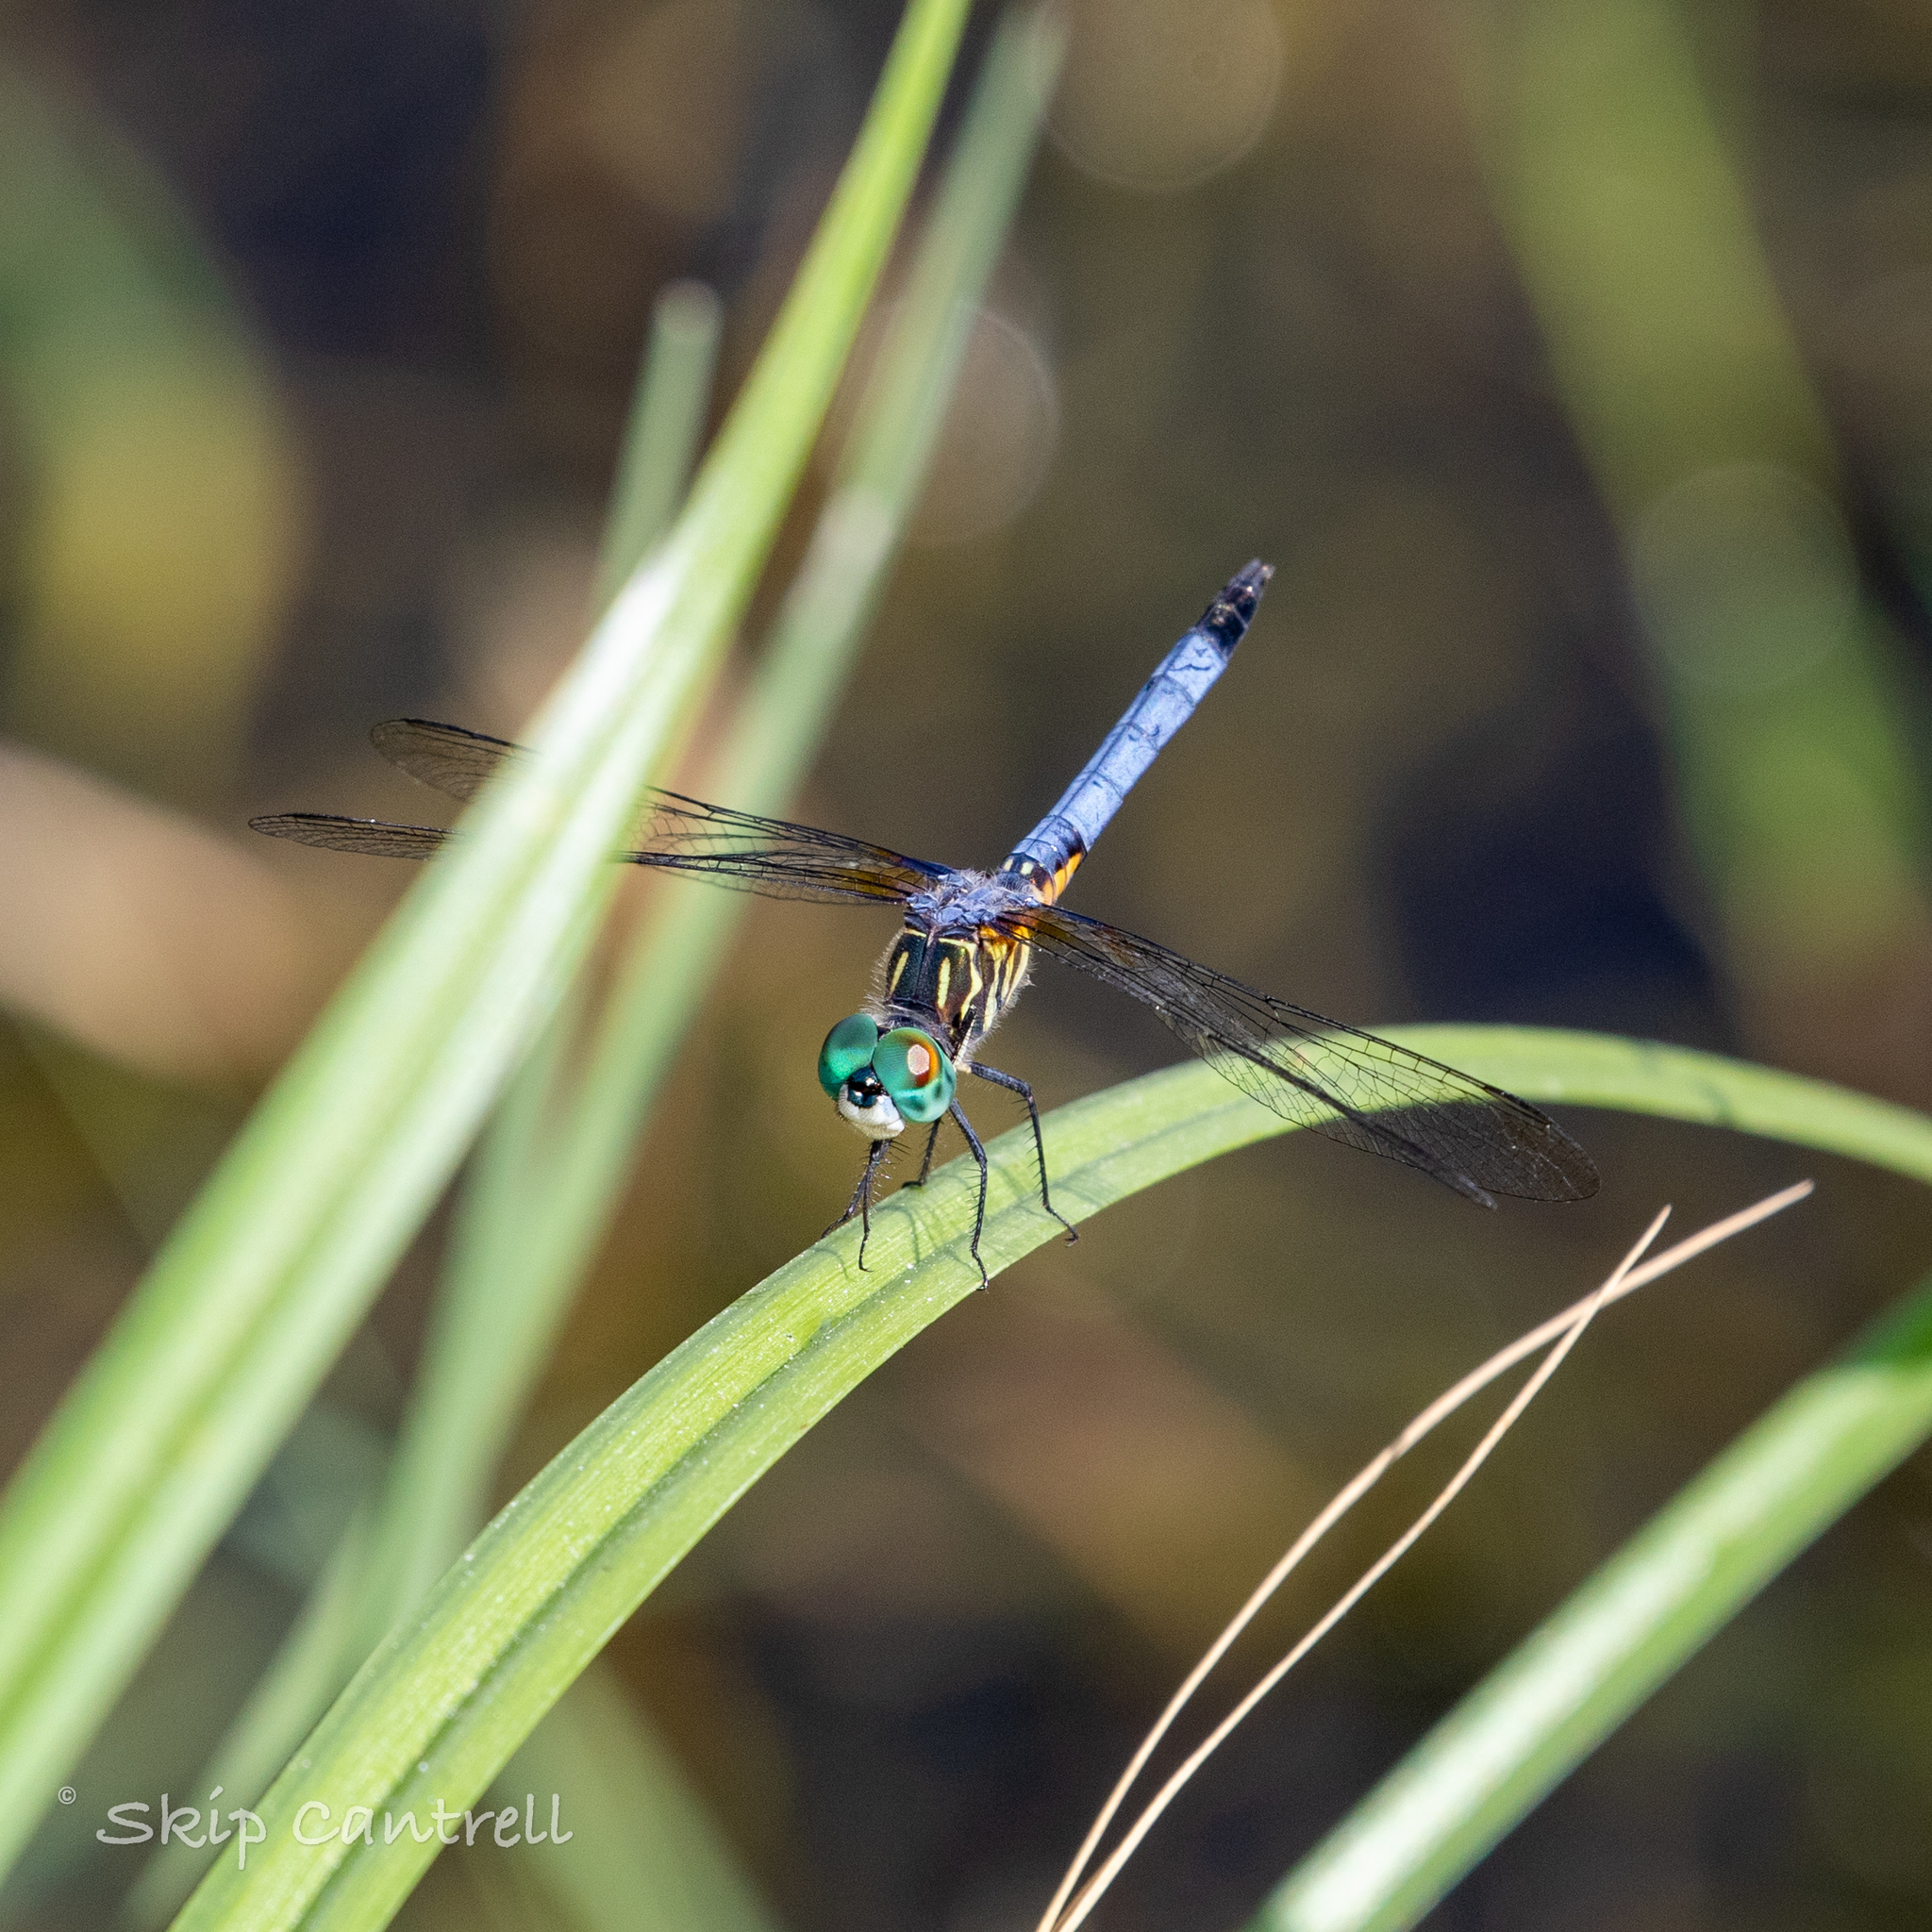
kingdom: Animalia
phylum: Arthropoda
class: Insecta
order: Odonata
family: Libellulidae
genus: Pachydiplax
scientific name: Pachydiplax longipennis
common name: Blue dasher
